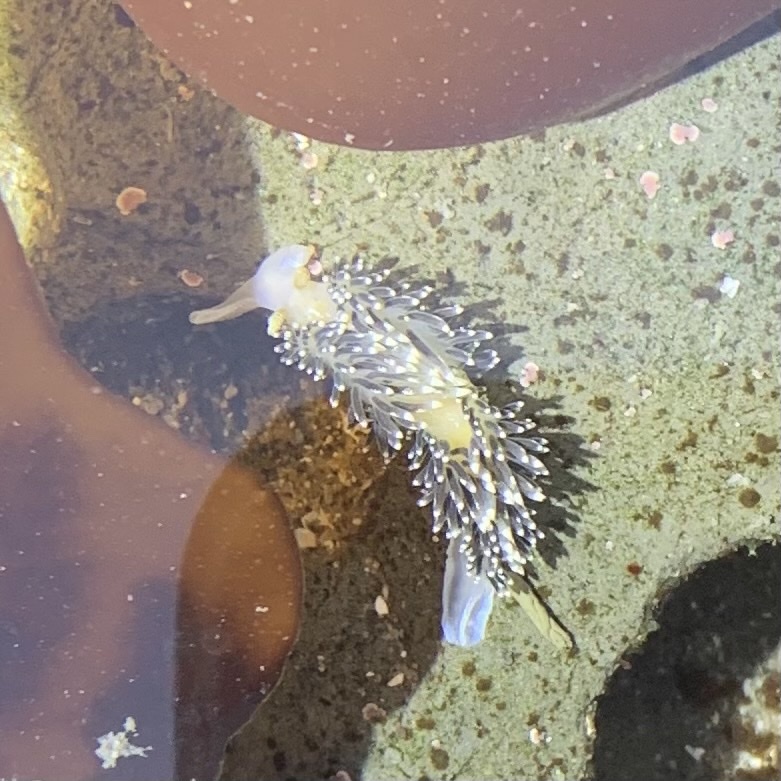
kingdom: Animalia
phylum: Mollusca
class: Gastropoda
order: Nudibranchia
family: Facelinidae
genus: Phidiana
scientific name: Phidiana hiltoni
